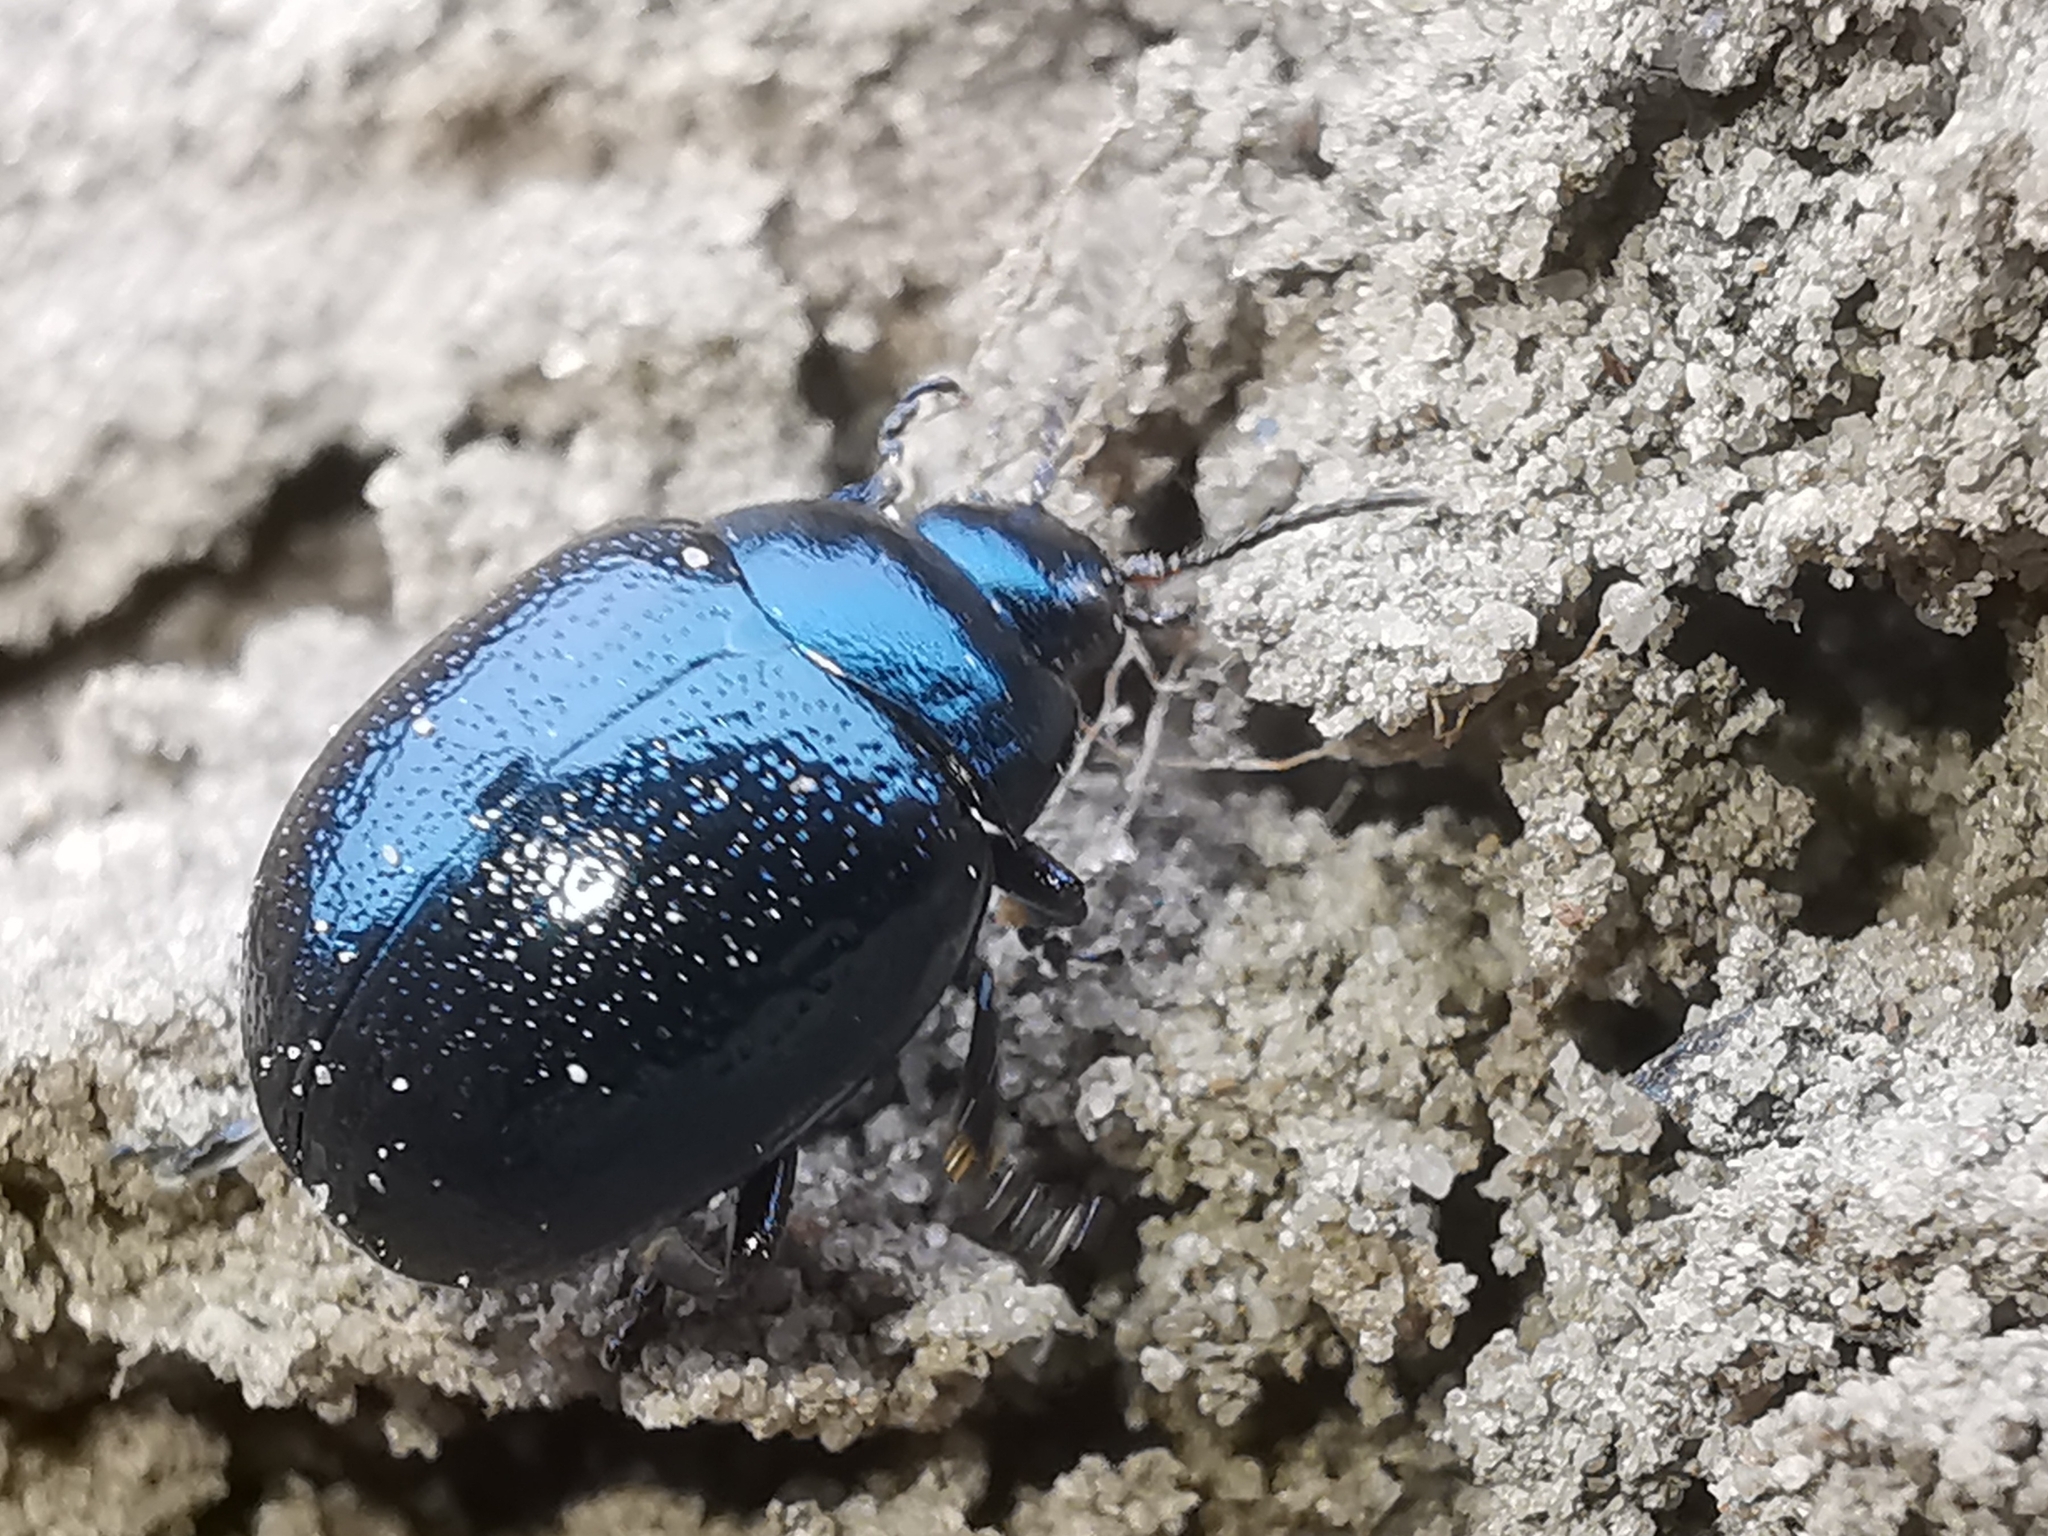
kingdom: Animalia
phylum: Arthropoda
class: Insecta
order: Coleoptera
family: Chrysomelidae
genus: Chrysolina
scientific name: Chrysolina haemoptera
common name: Plantain leaf beetle
